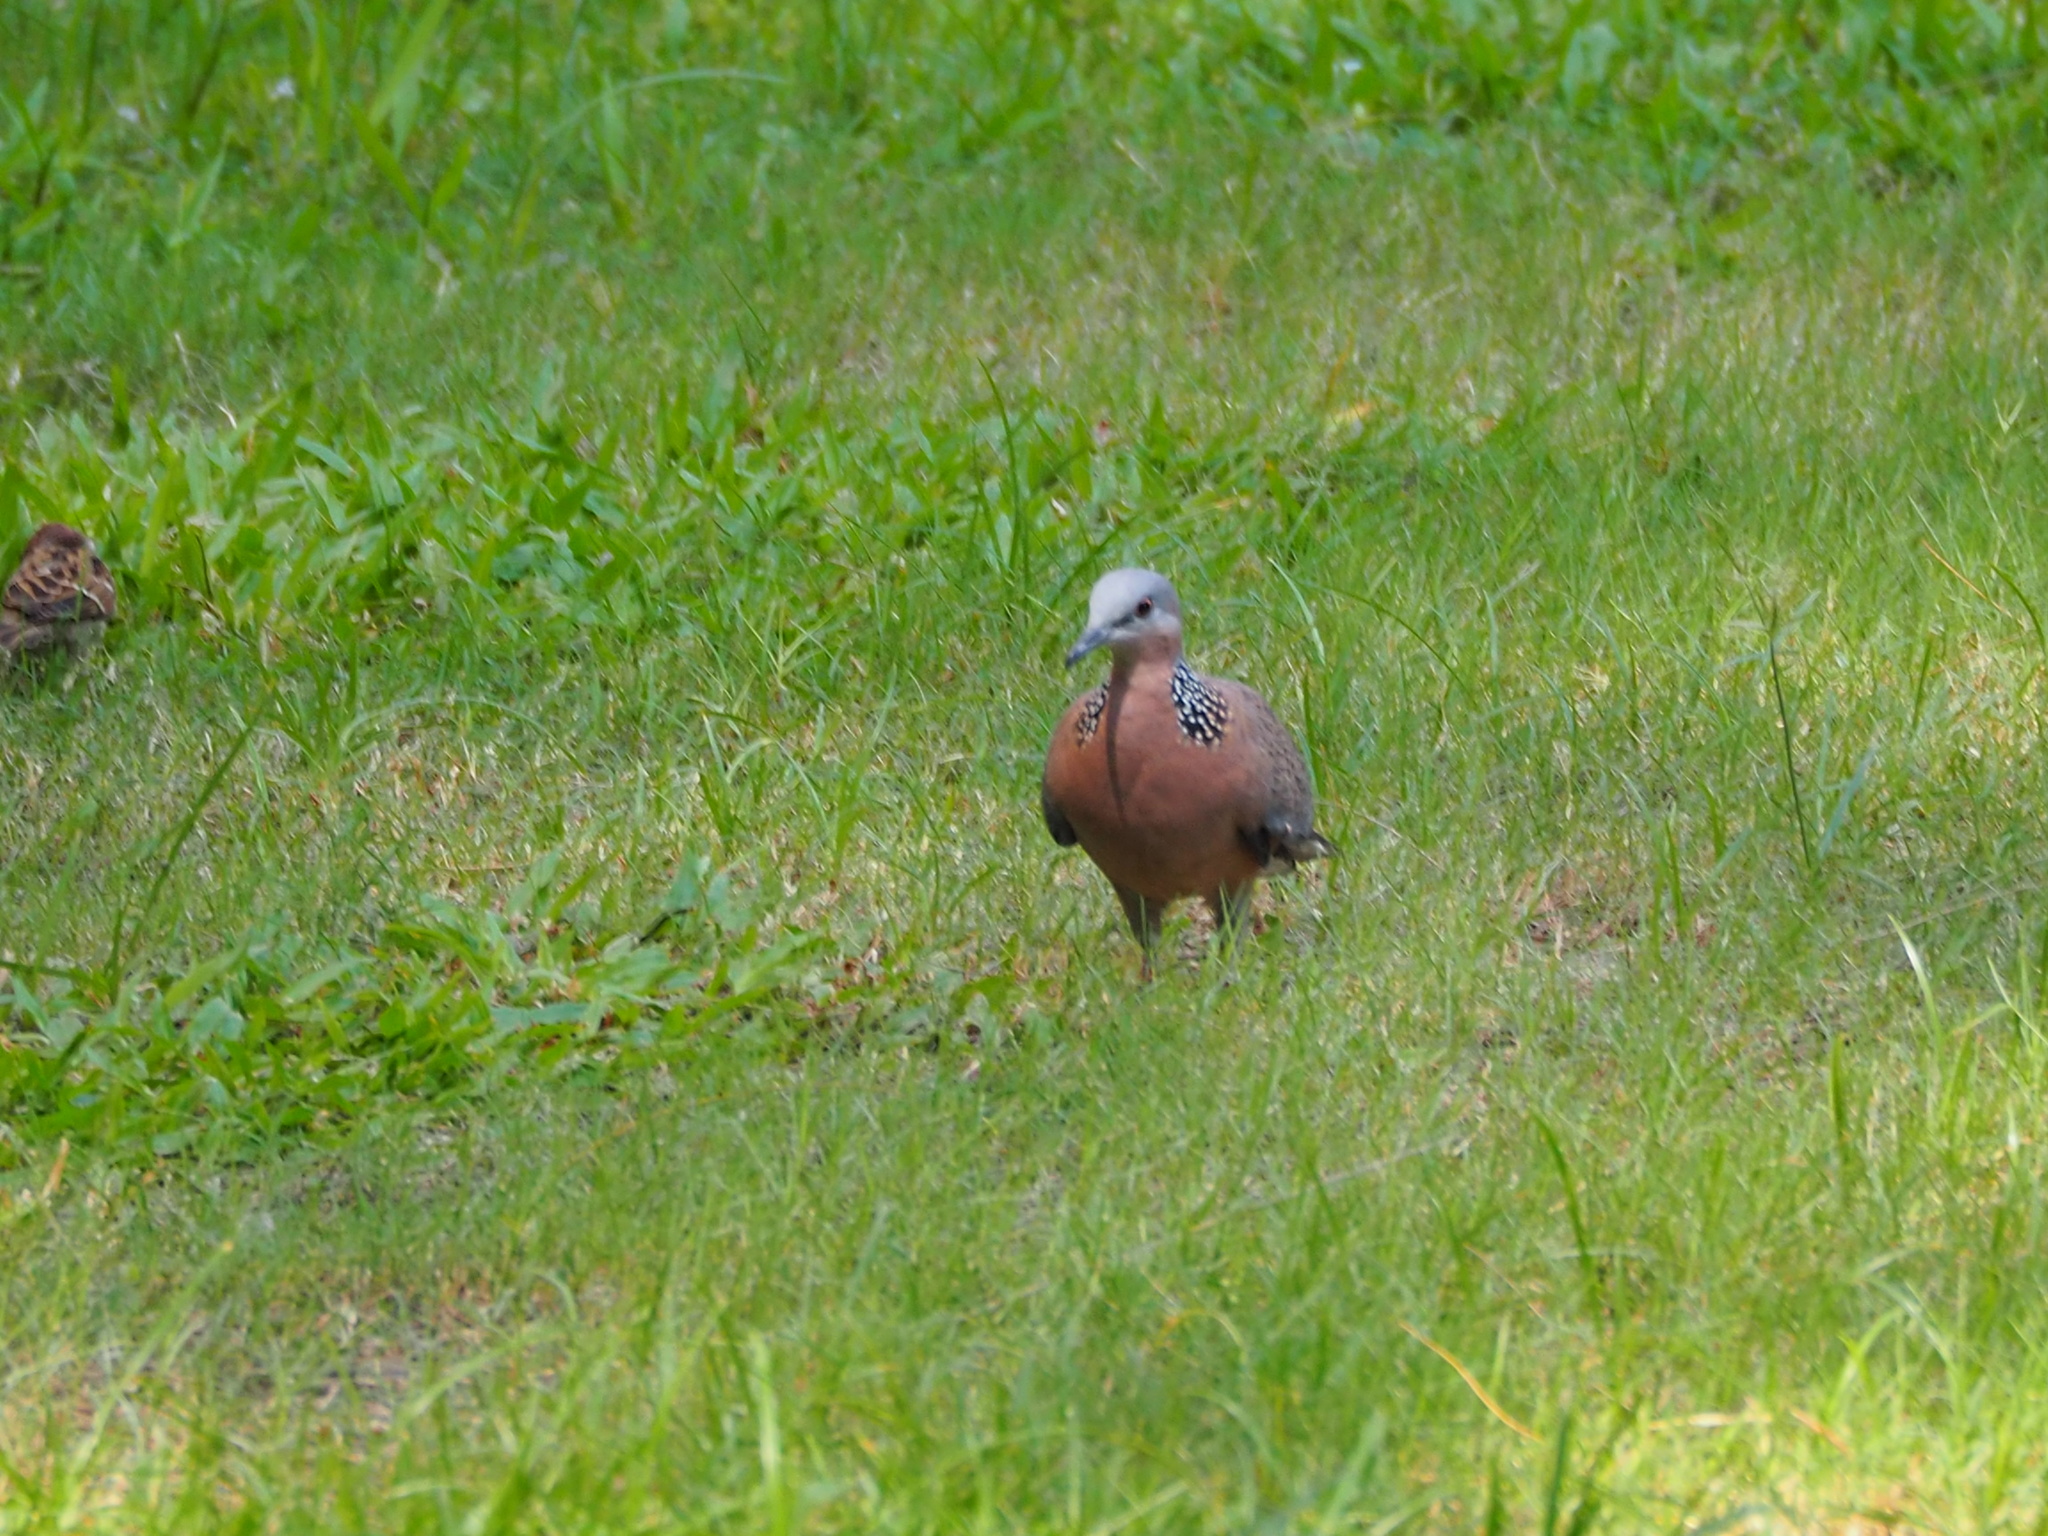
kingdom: Animalia
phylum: Chordata
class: Aves
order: Columbiformes
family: Columbidae
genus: Spilopelia
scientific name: Spilopelia chinensis
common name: Spotted dove
